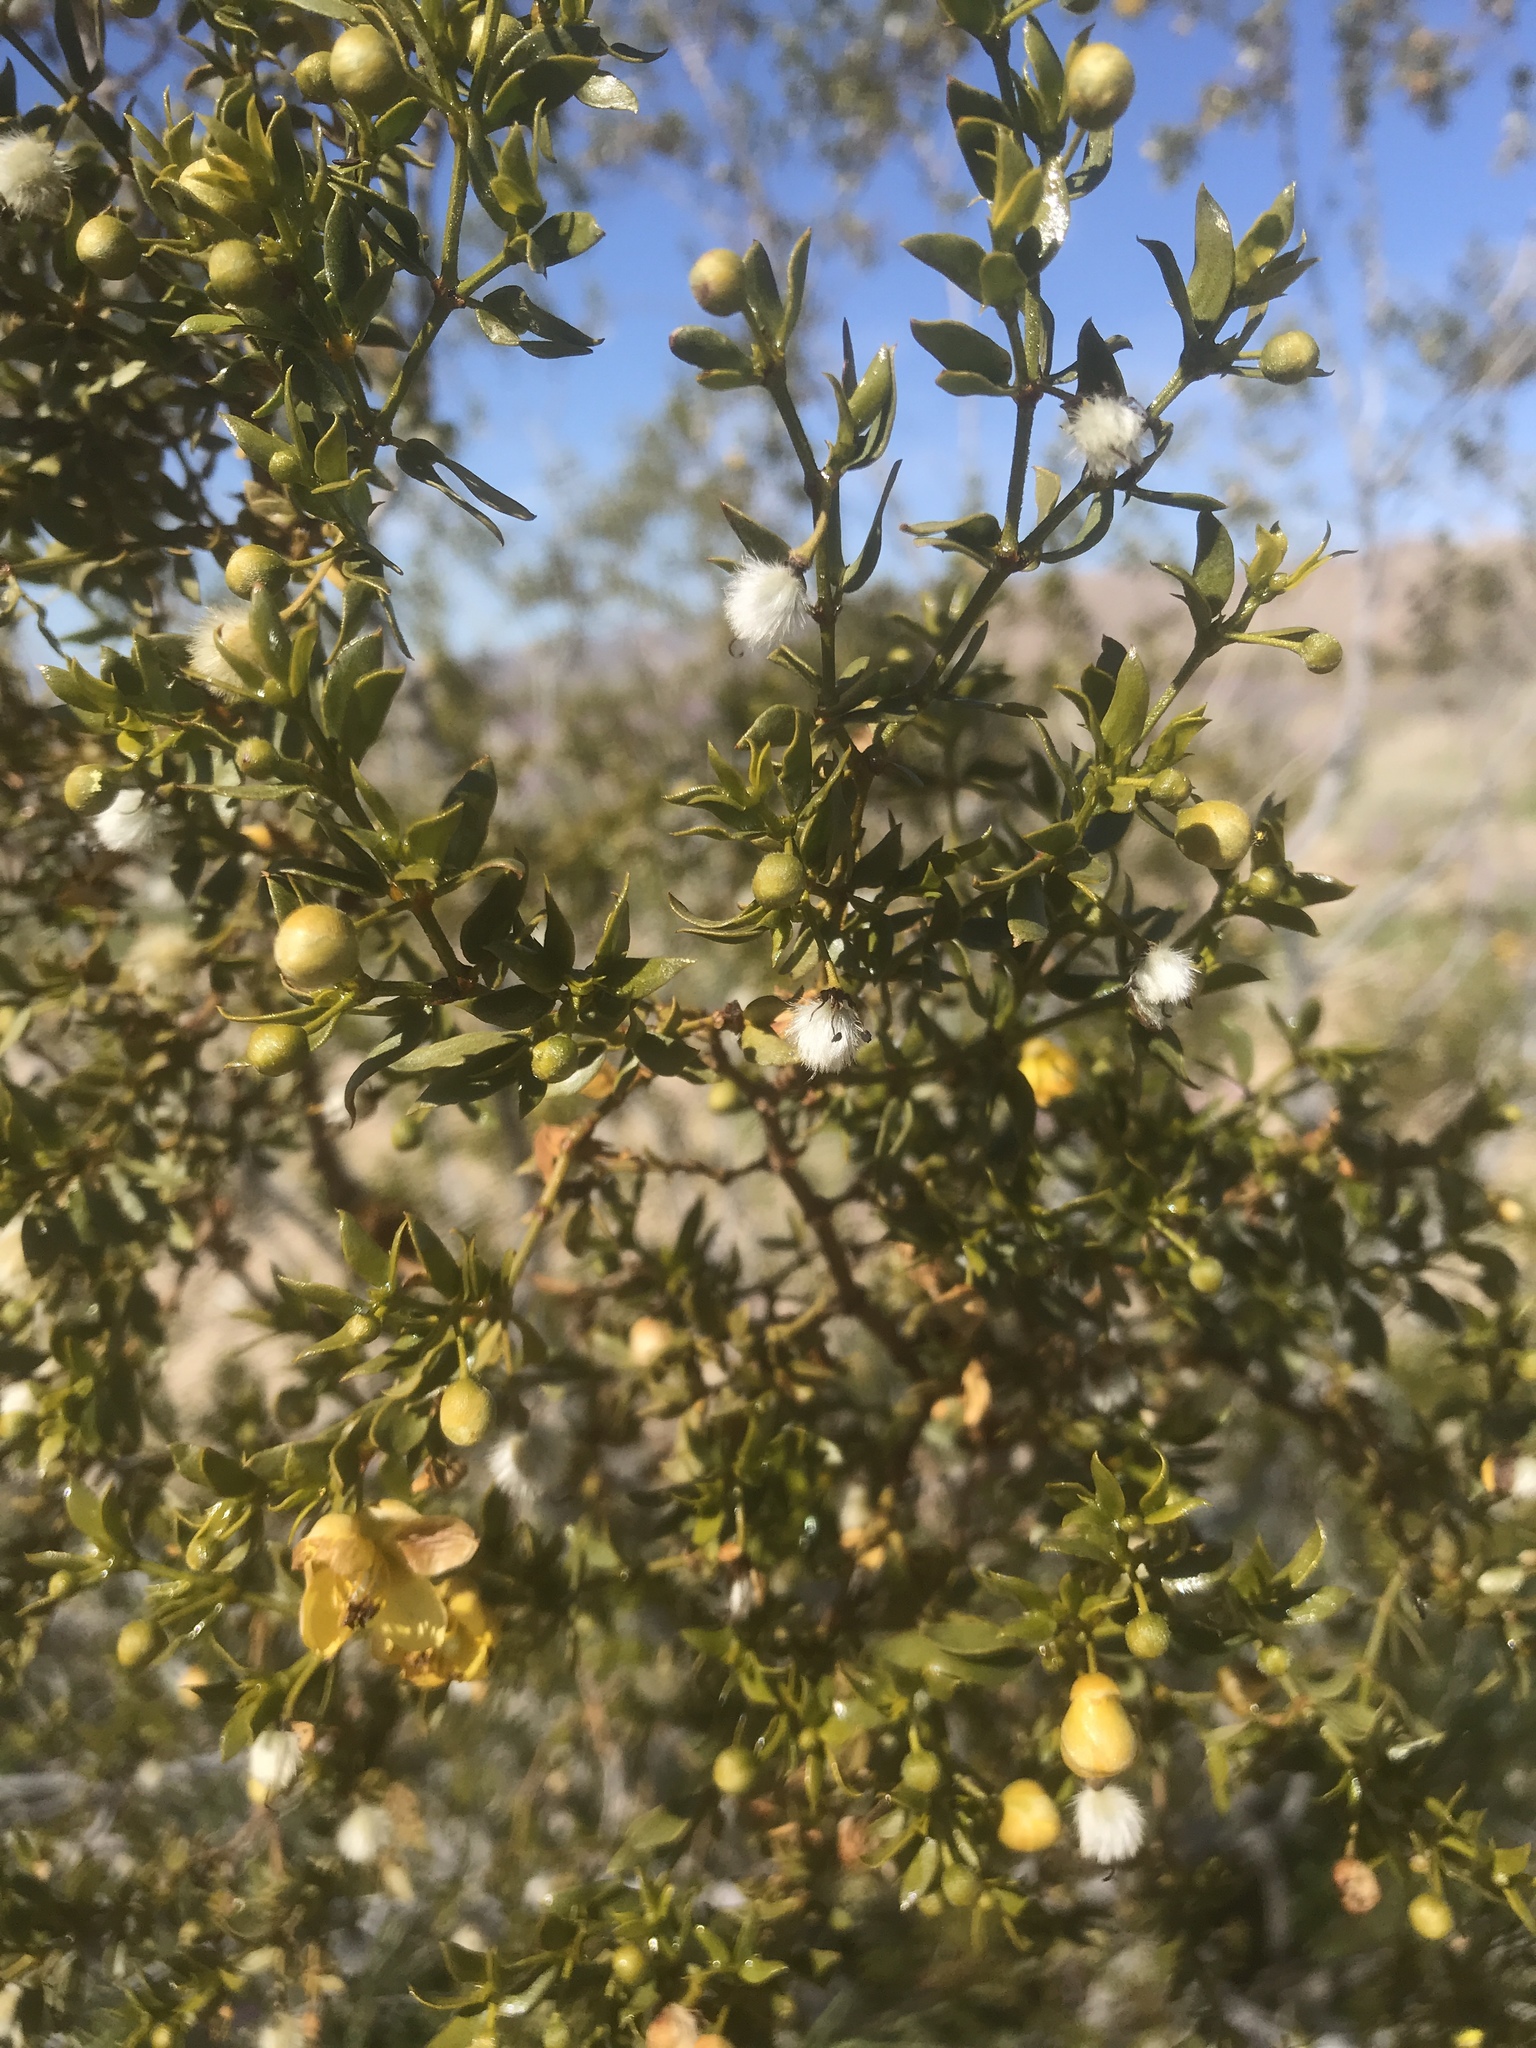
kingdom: Plantae
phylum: Tracheophyta
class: Magnoliopsida
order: Zygophyllales
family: Zygophyllaceae
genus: Larrea
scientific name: Larrea tridentata
